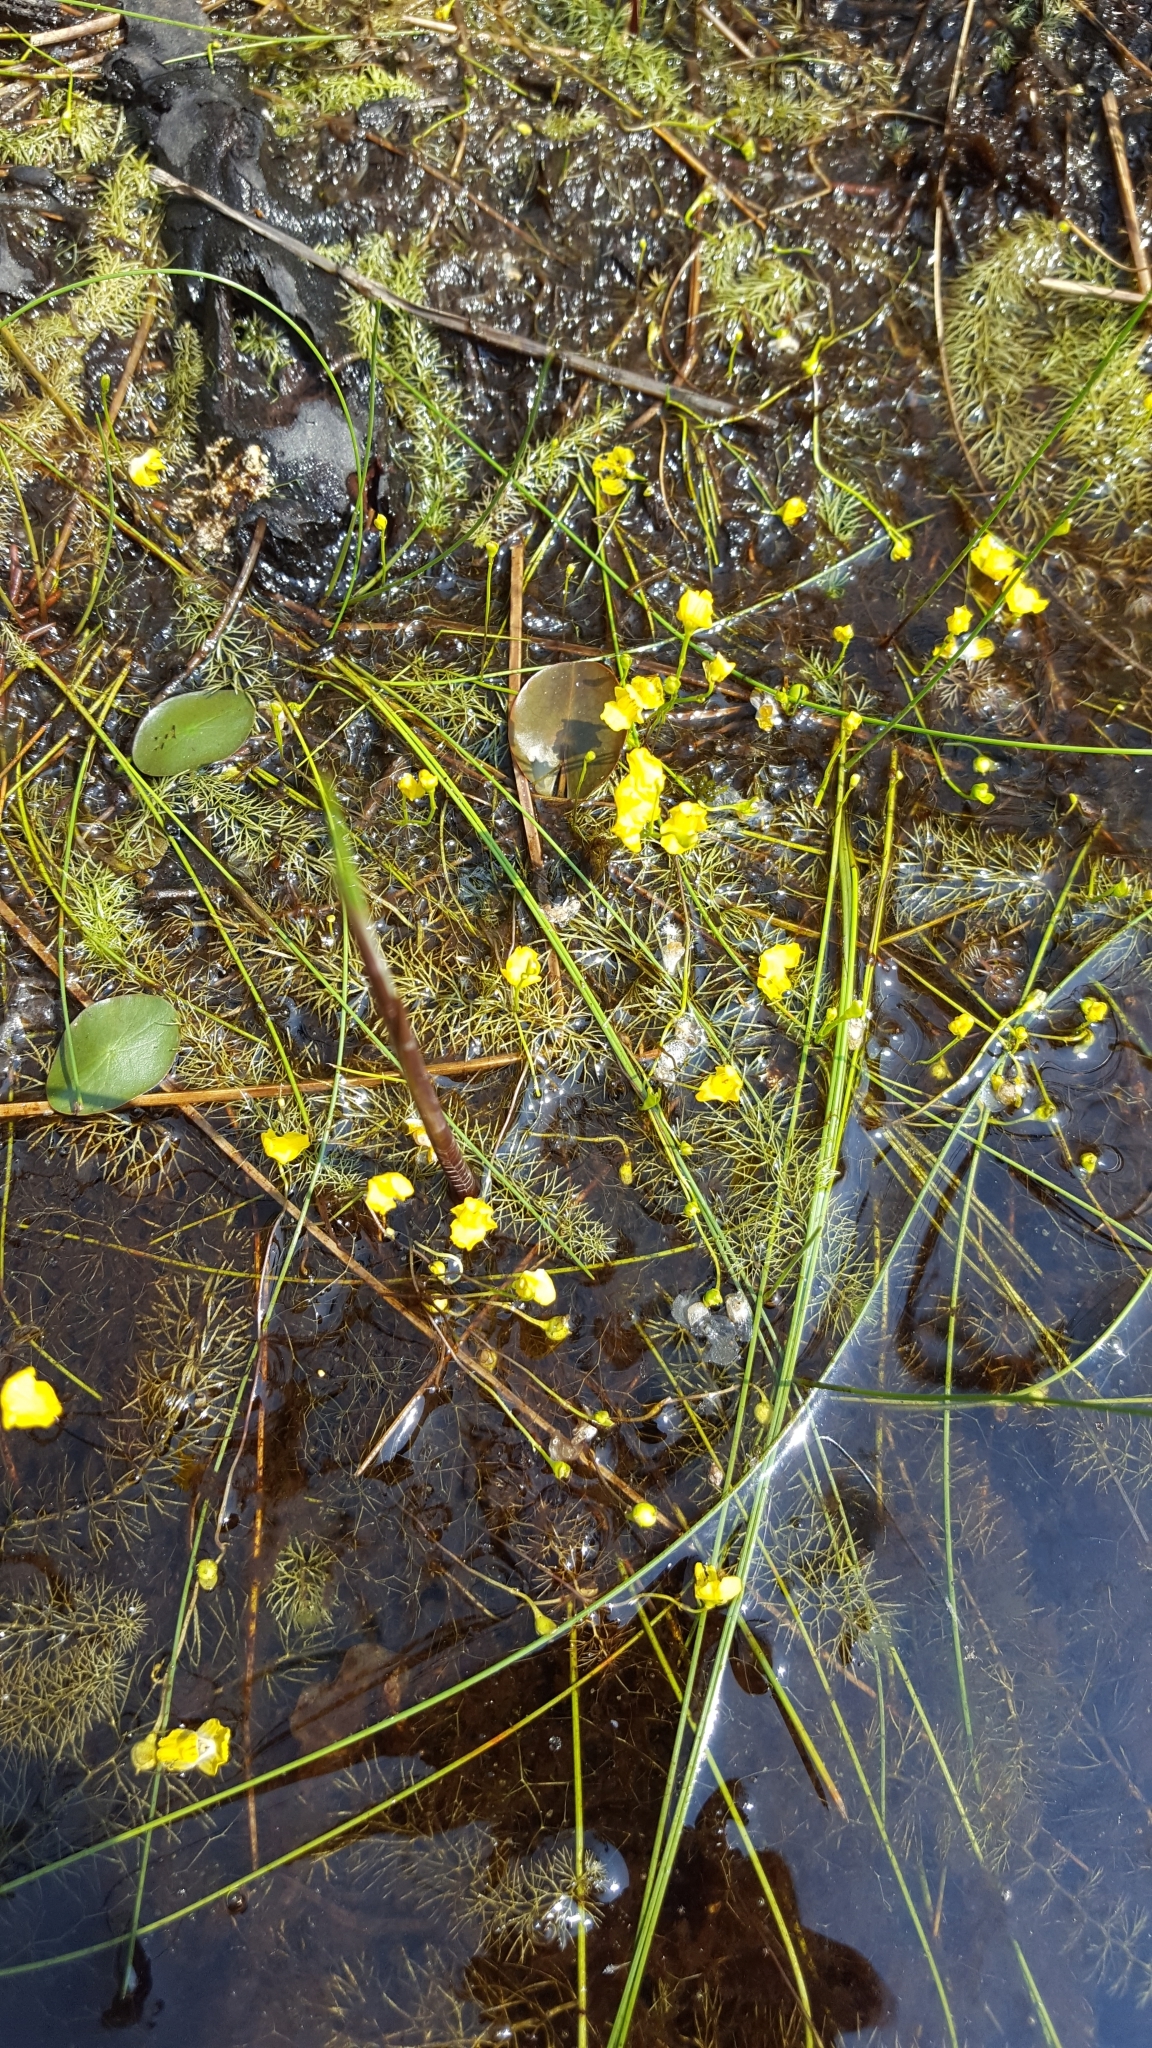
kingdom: Plantae
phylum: Tracheophyta
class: Magnoliopsida
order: Lamiales
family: Lentibulariaceae
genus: Utricularia
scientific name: Utricularia gibba
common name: Humped bladderwort
